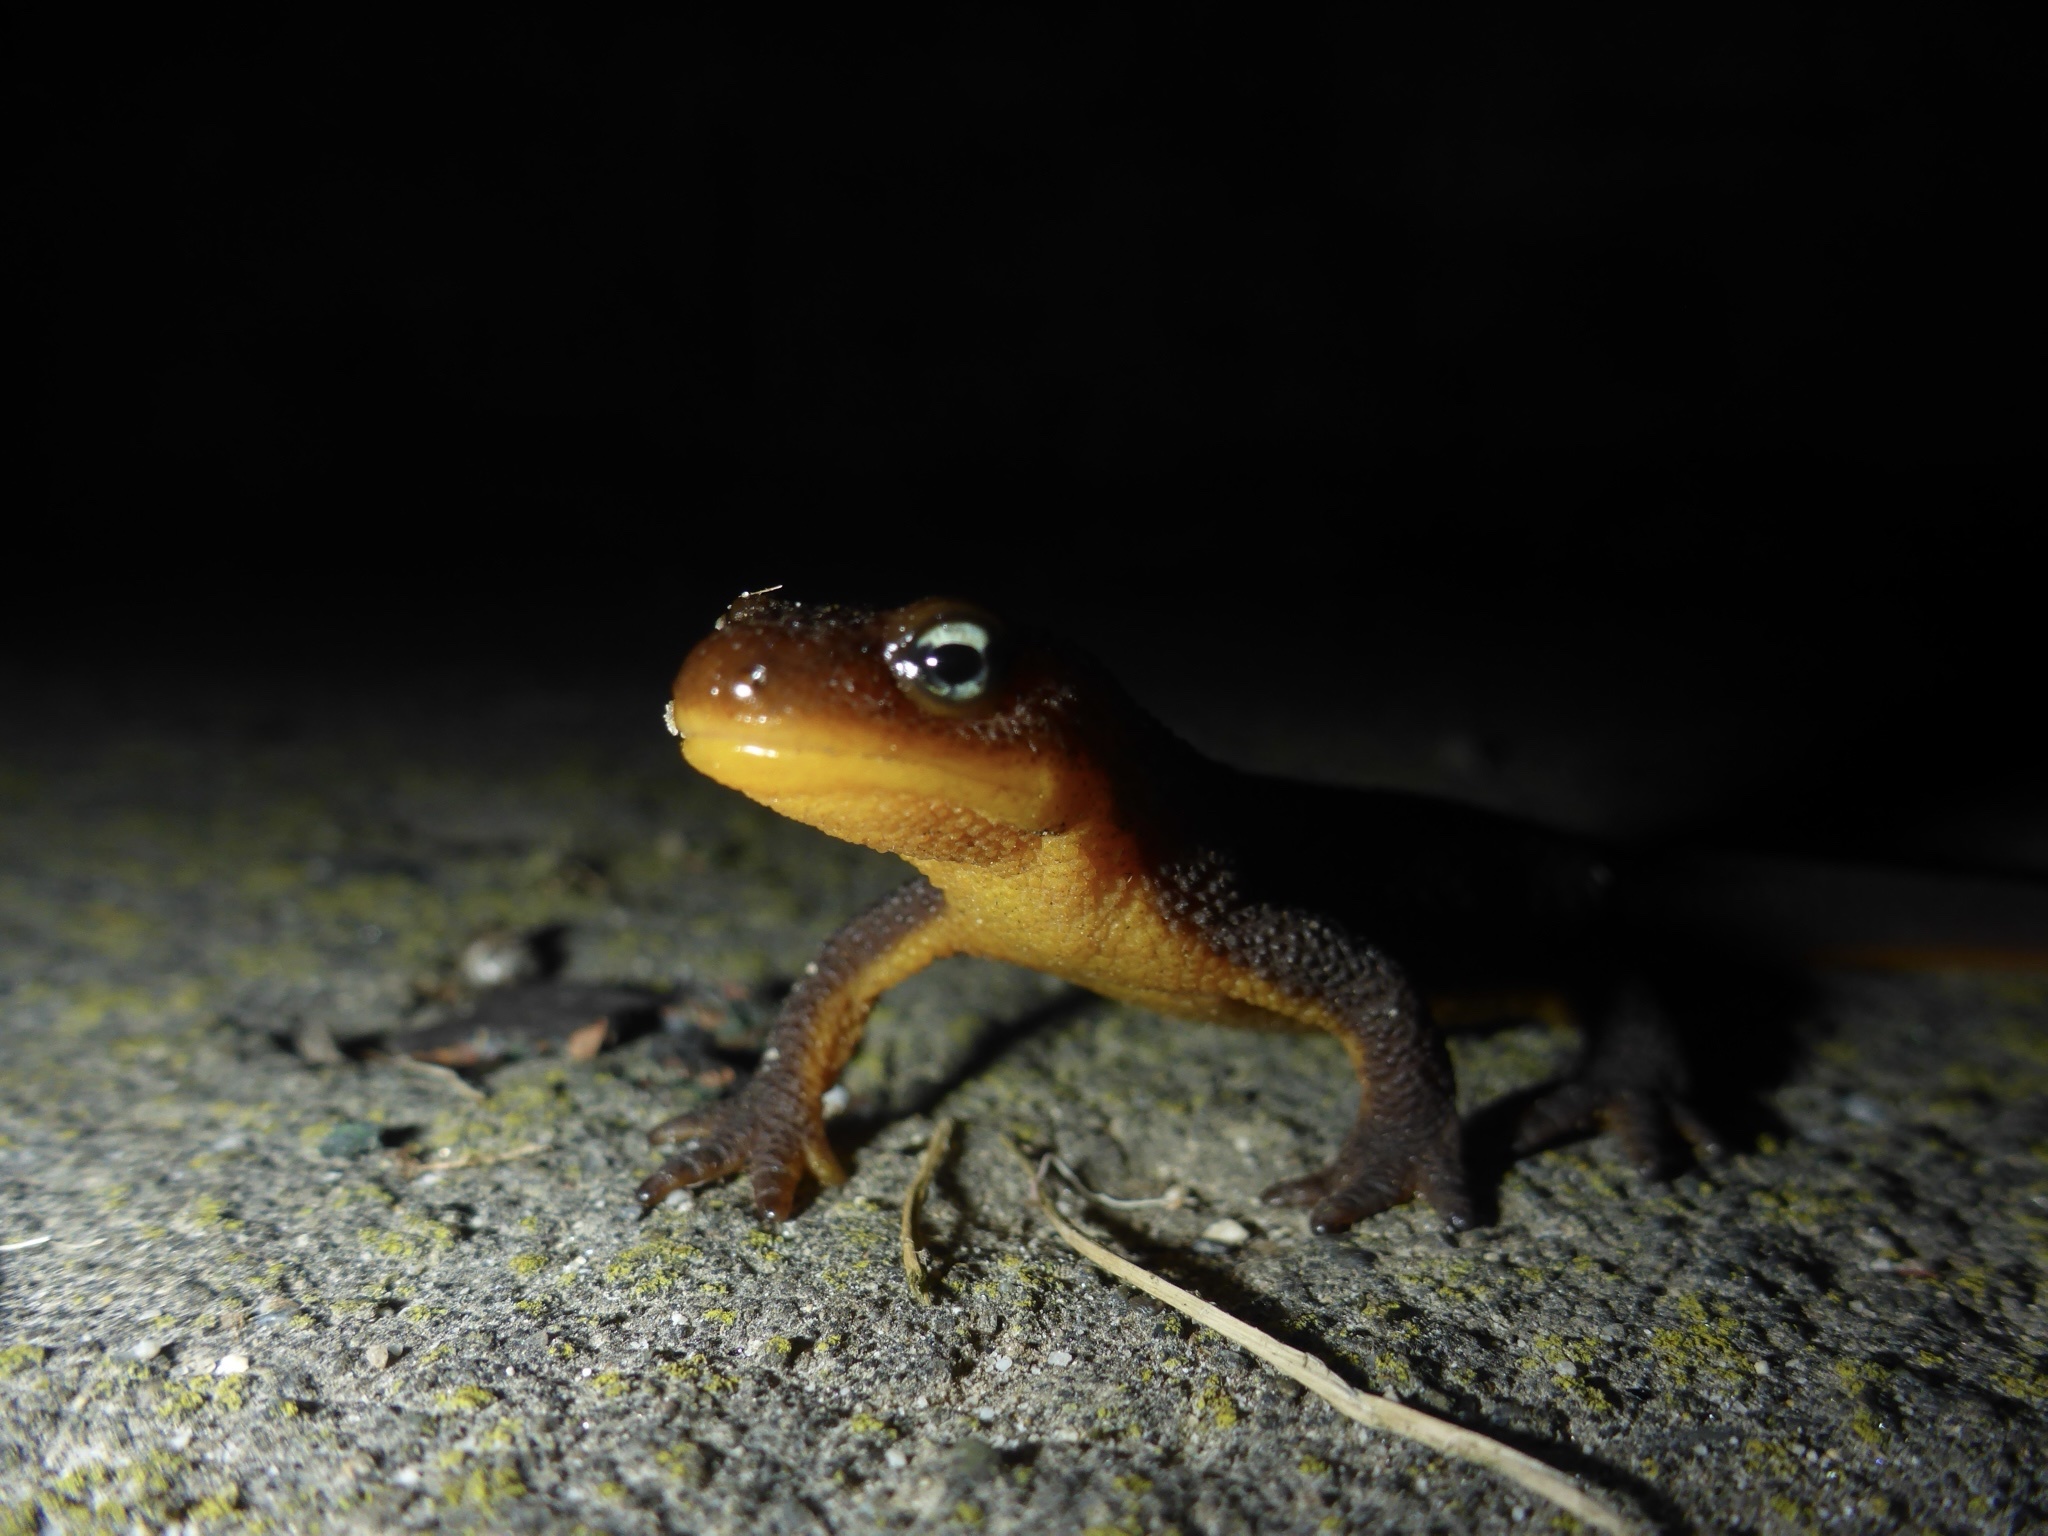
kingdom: Animalia
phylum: Chordata
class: Amphibia
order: Caudata
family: Salamandridae
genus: Taricha
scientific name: Taricha granulosa
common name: Roughskin newt
